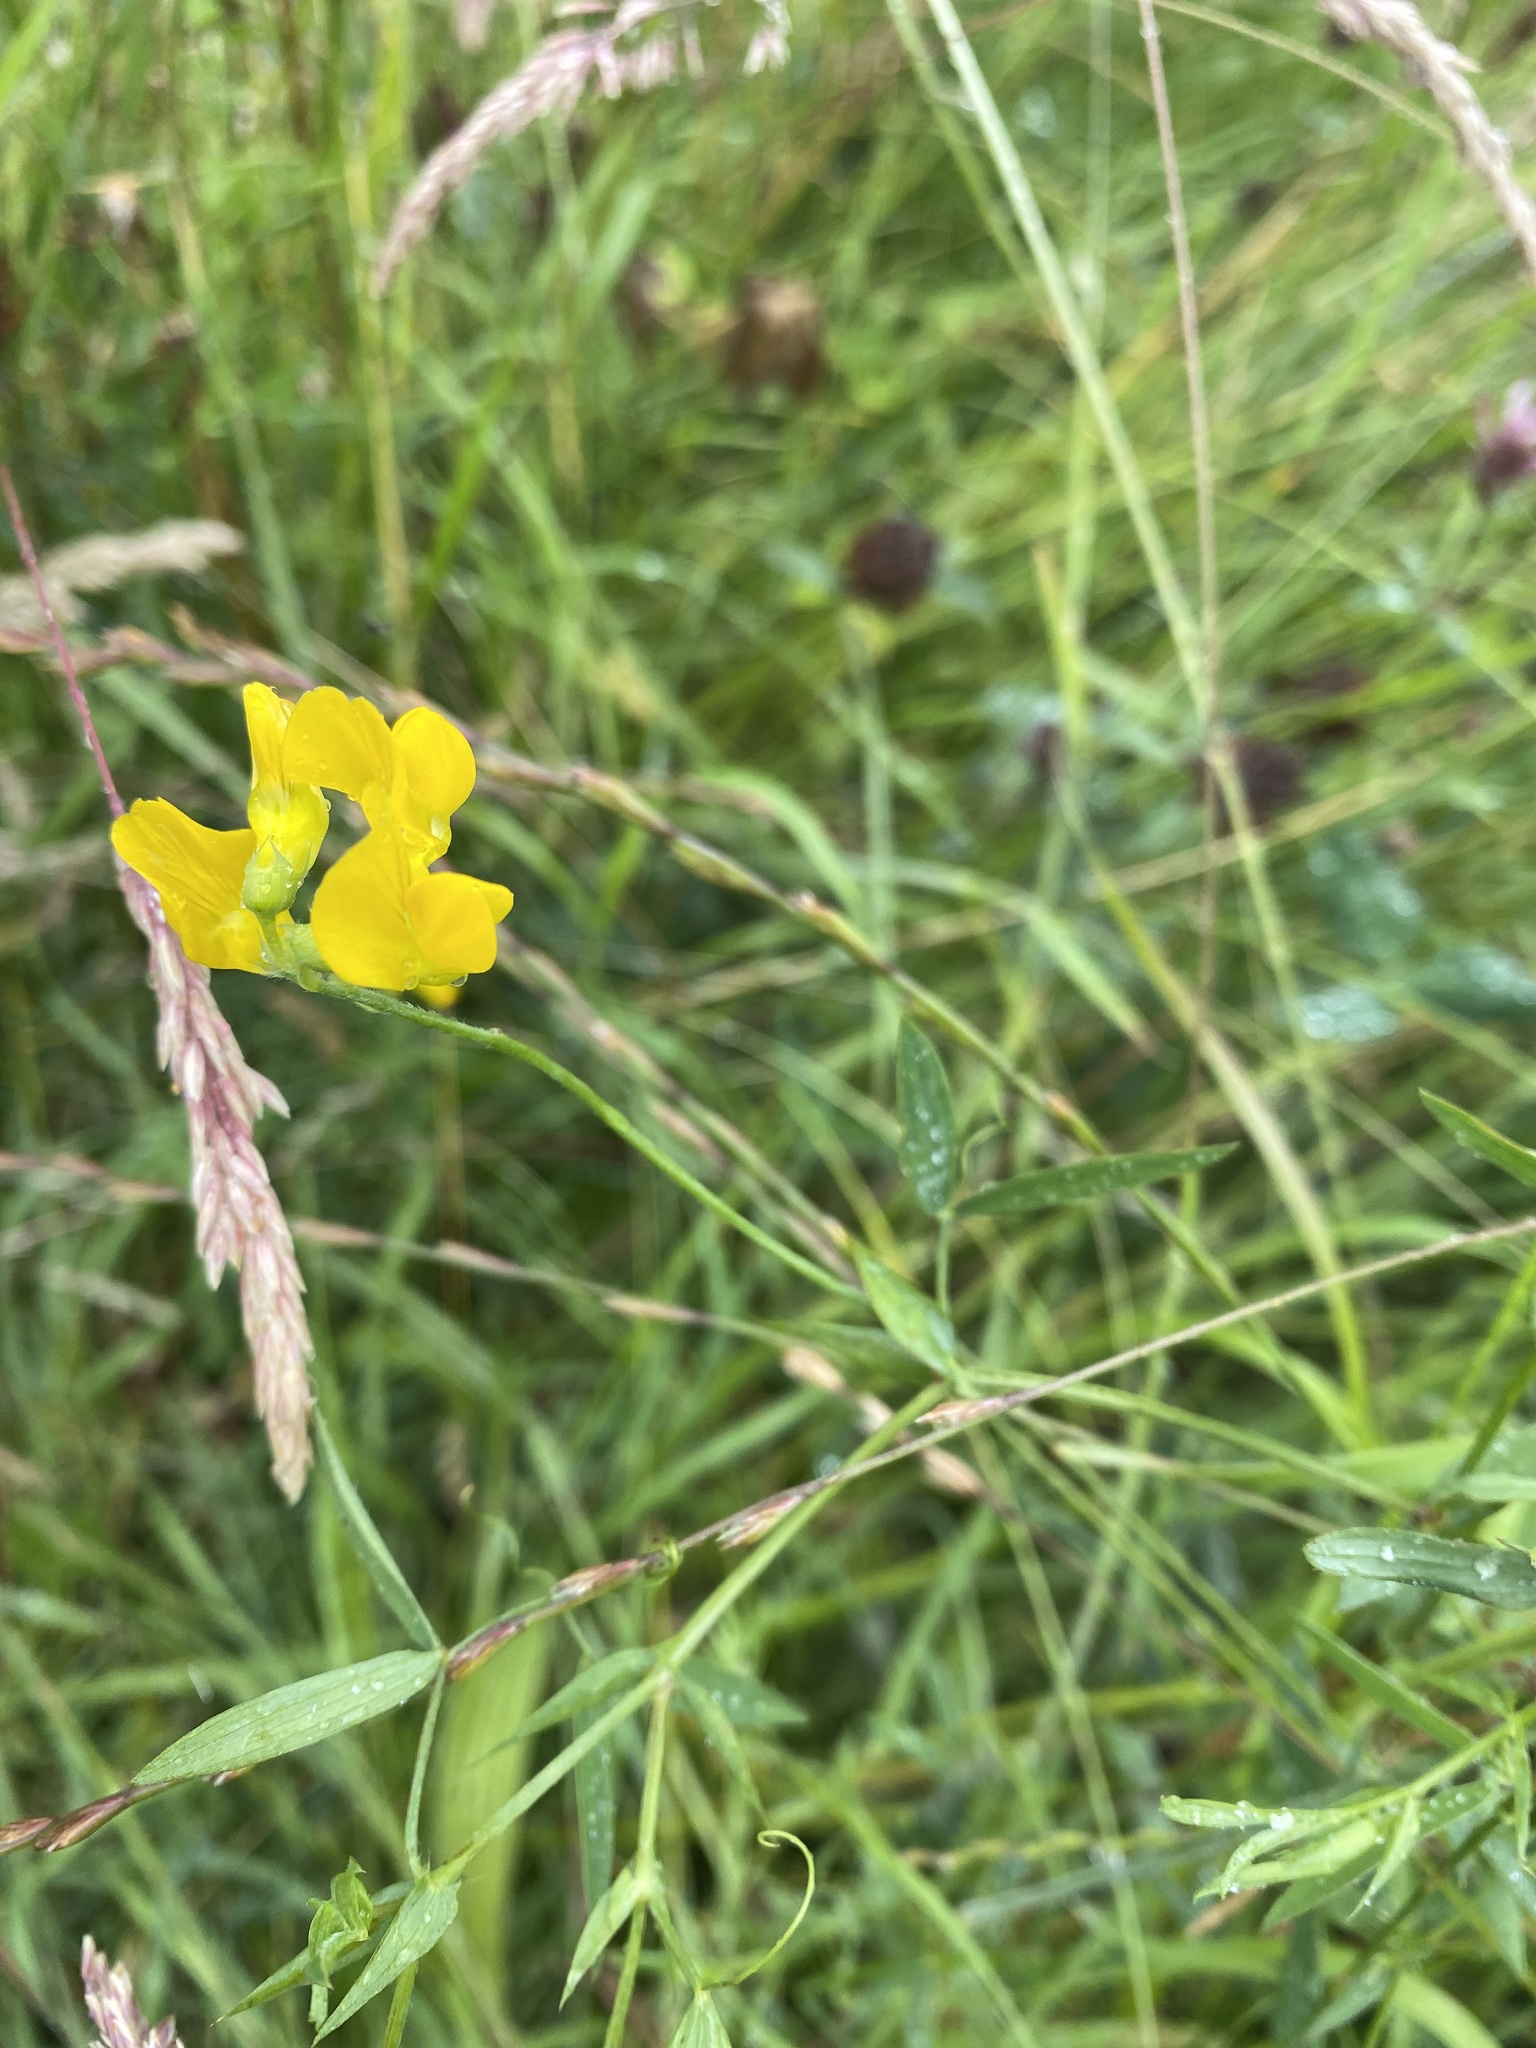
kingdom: Plantae
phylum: Tracheophyta
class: Magnoliopsida
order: Fabales
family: Fabaceae
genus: Lathyrus
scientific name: Lathyrus pratensis
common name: Meadow vetchling
